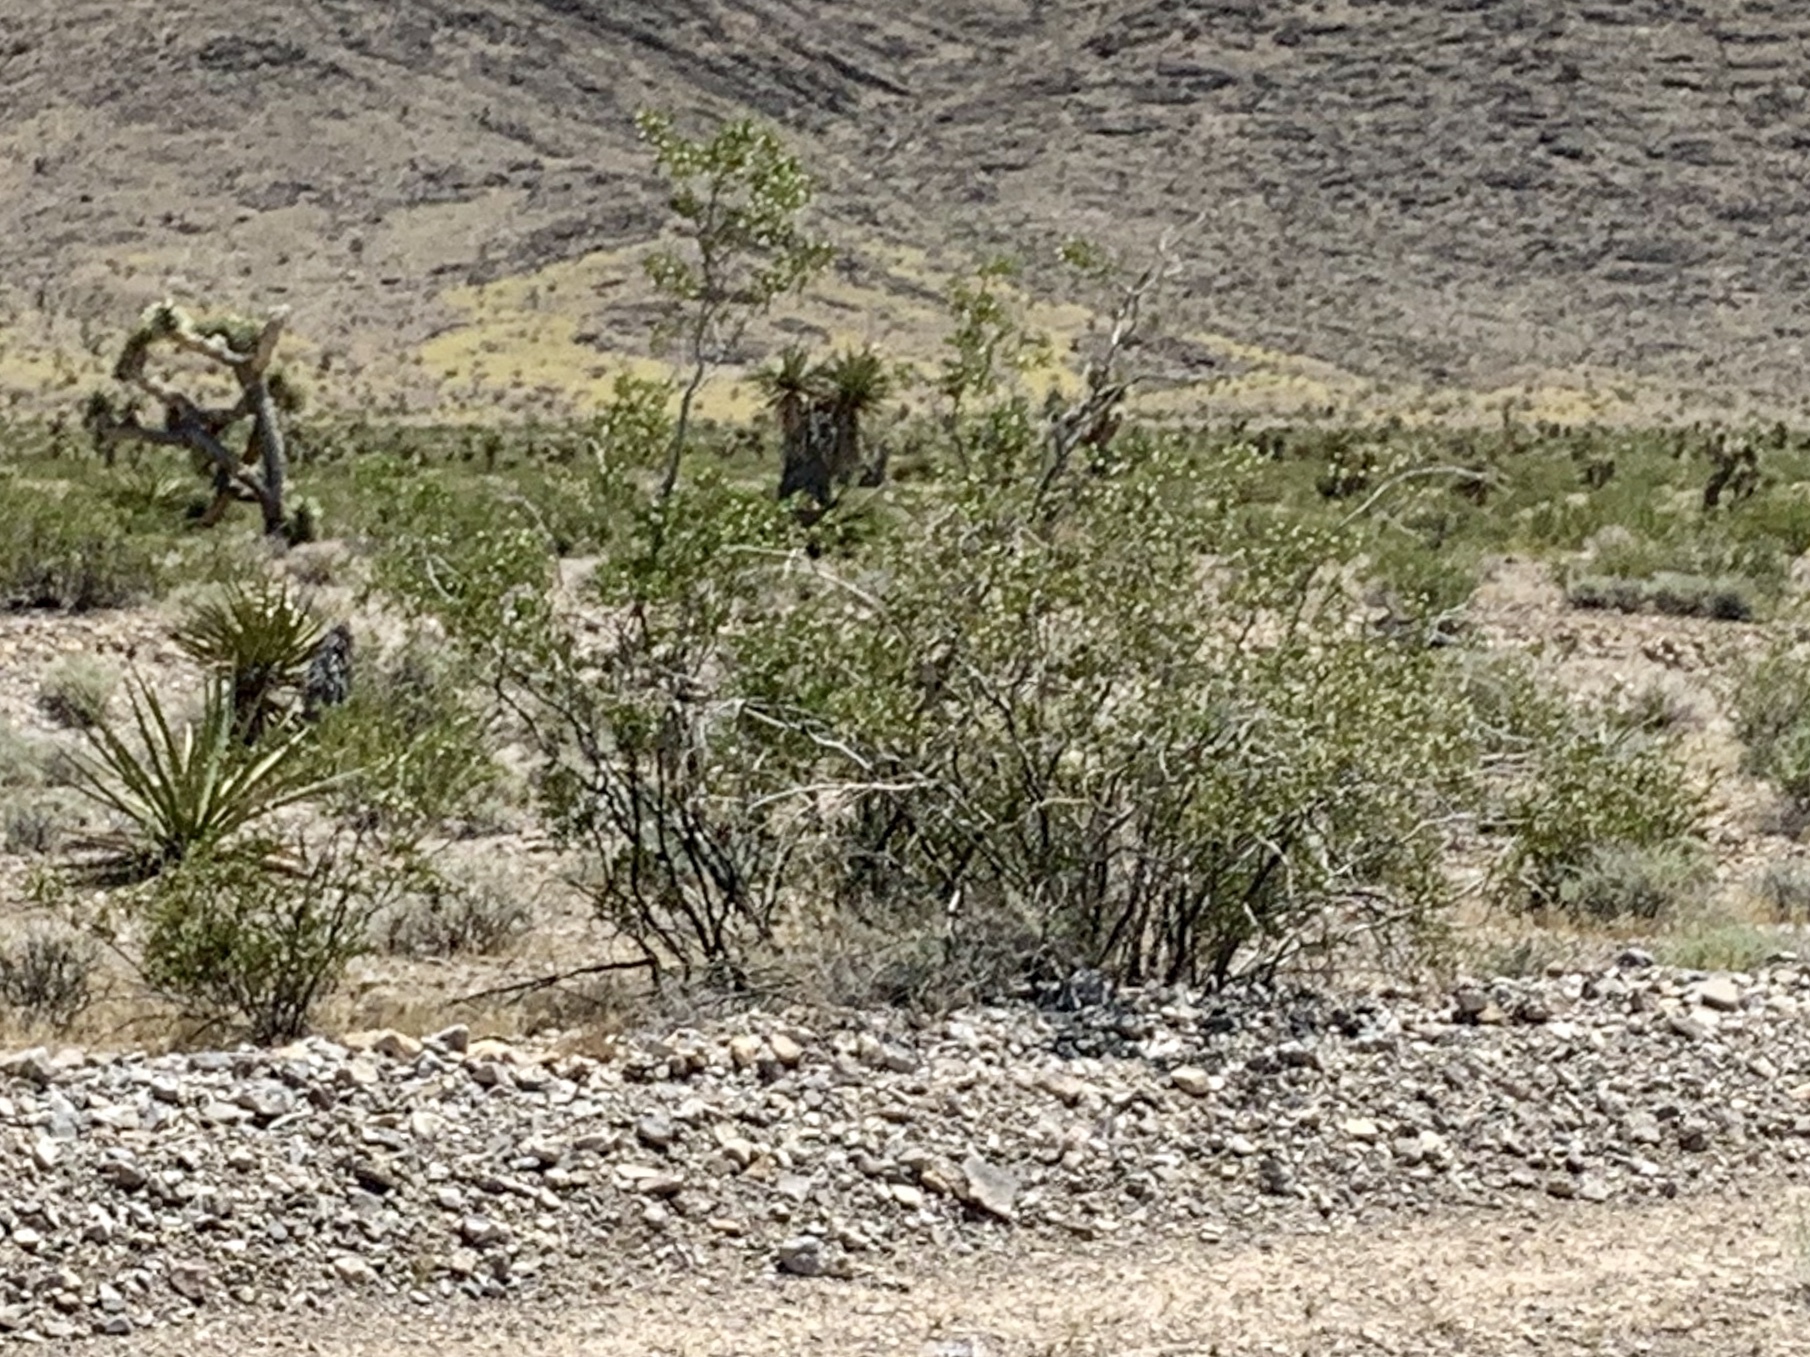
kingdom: Plantae
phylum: Tracheophyta
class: Magnoliopsida
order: Zygophyllales
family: Zygophyllaceae
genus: Larrea
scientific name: Larrea tridentata
